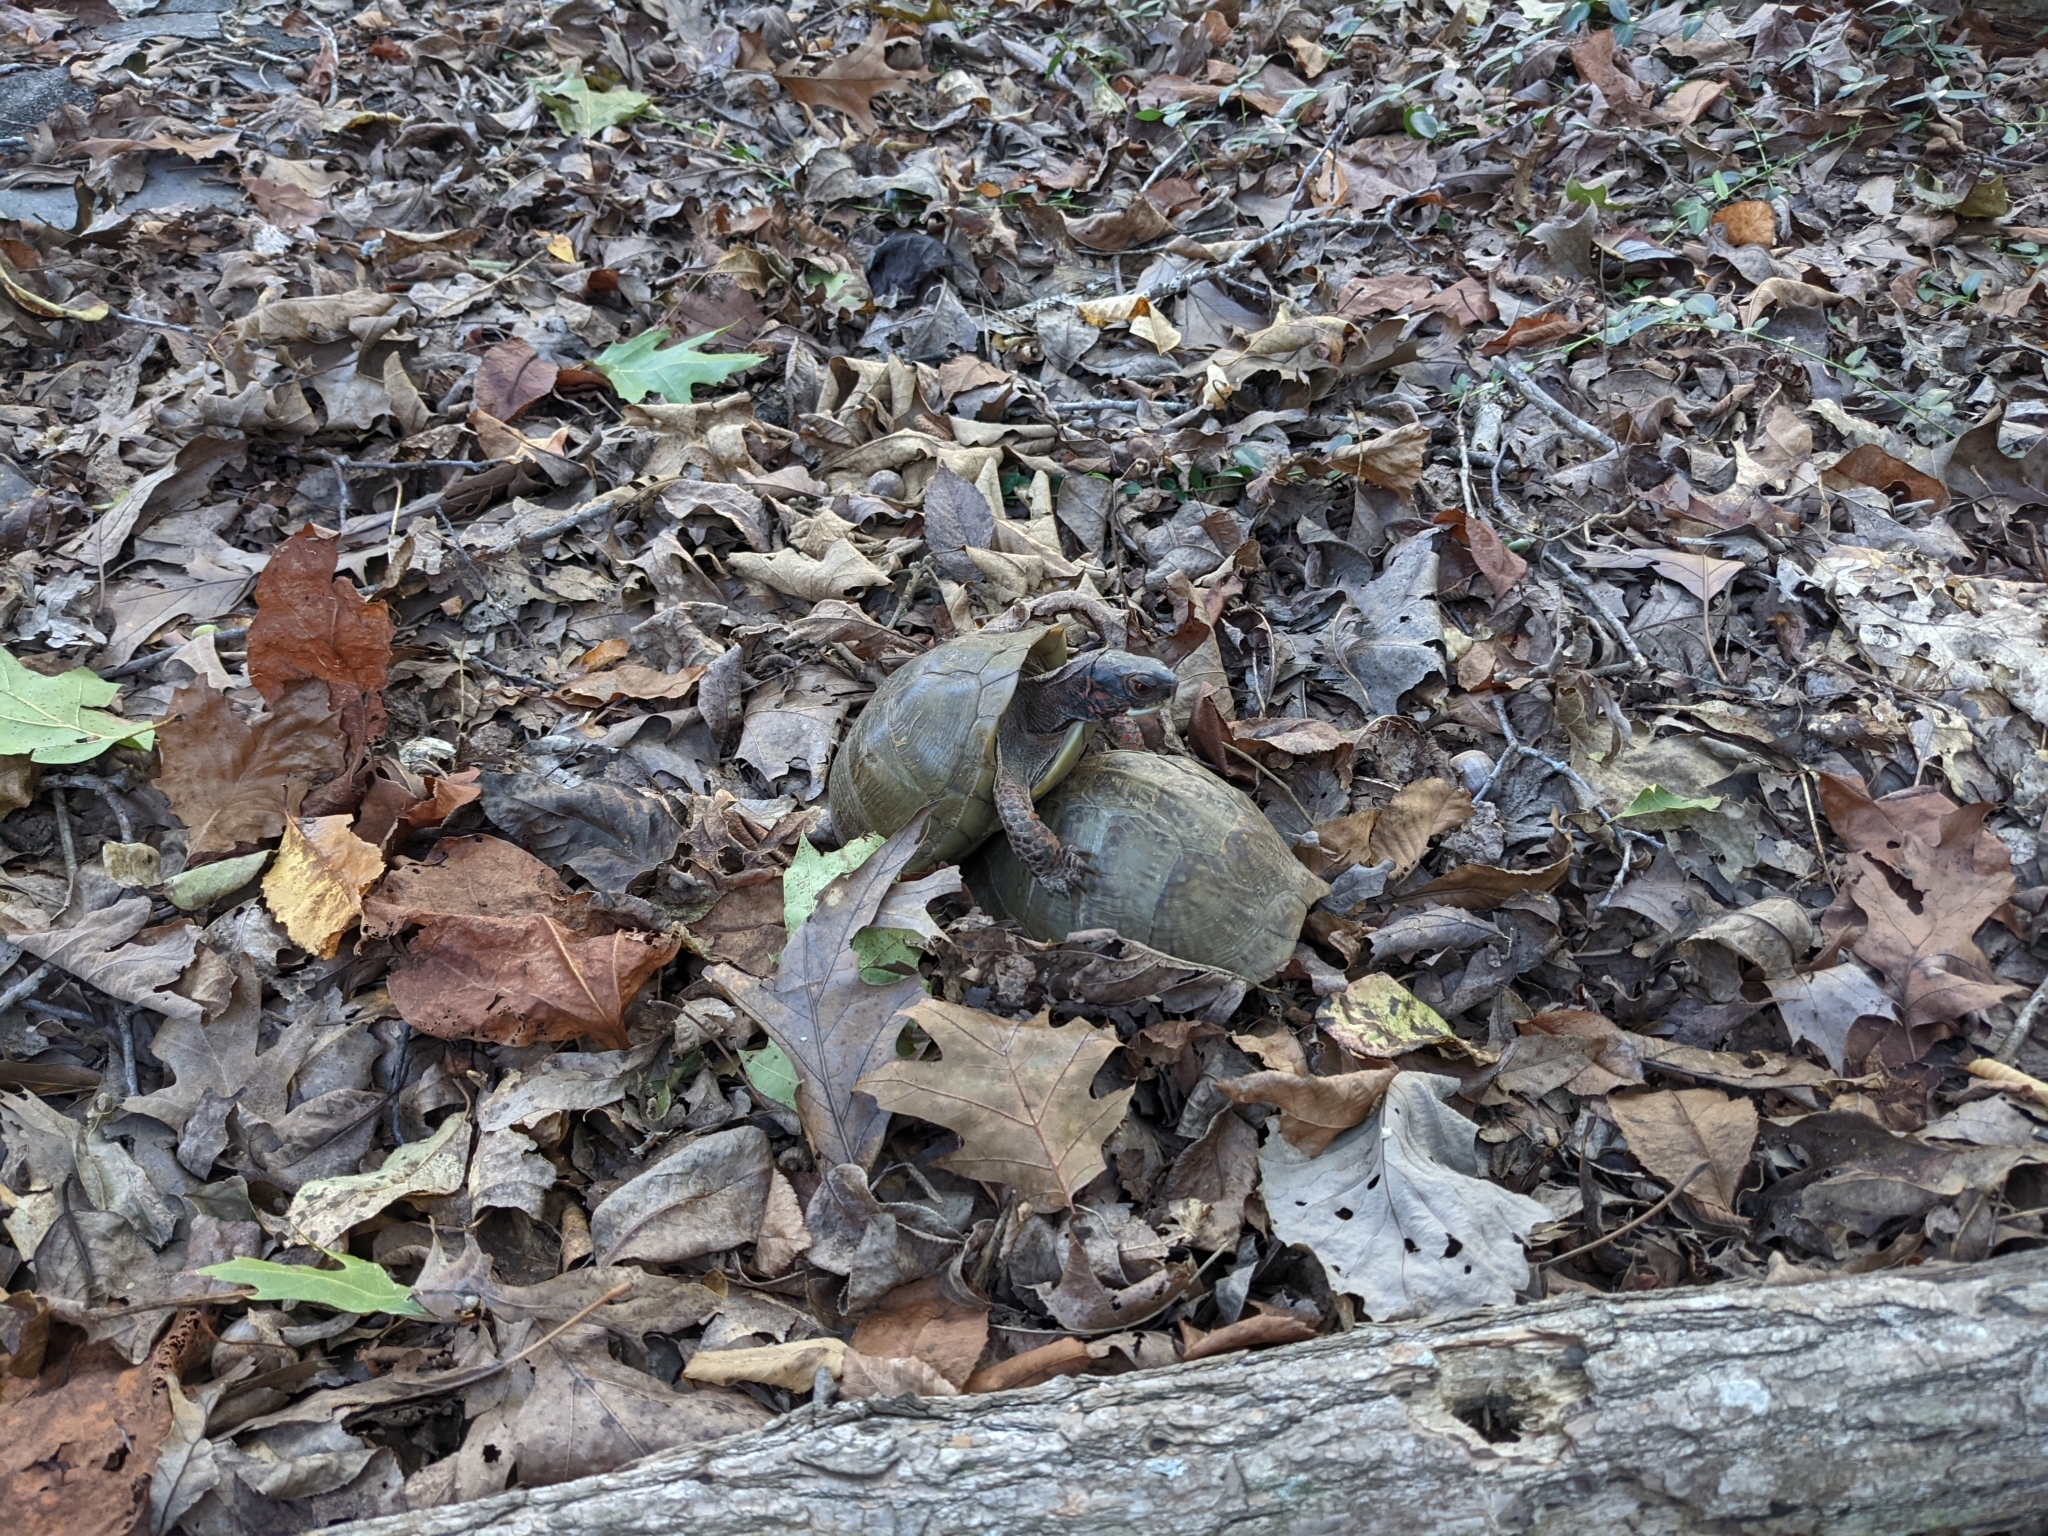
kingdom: Animalia
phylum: Chordata
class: Testudines
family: Emydidae
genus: Terrapene
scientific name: Terrapene carolina
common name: Common box turtle
